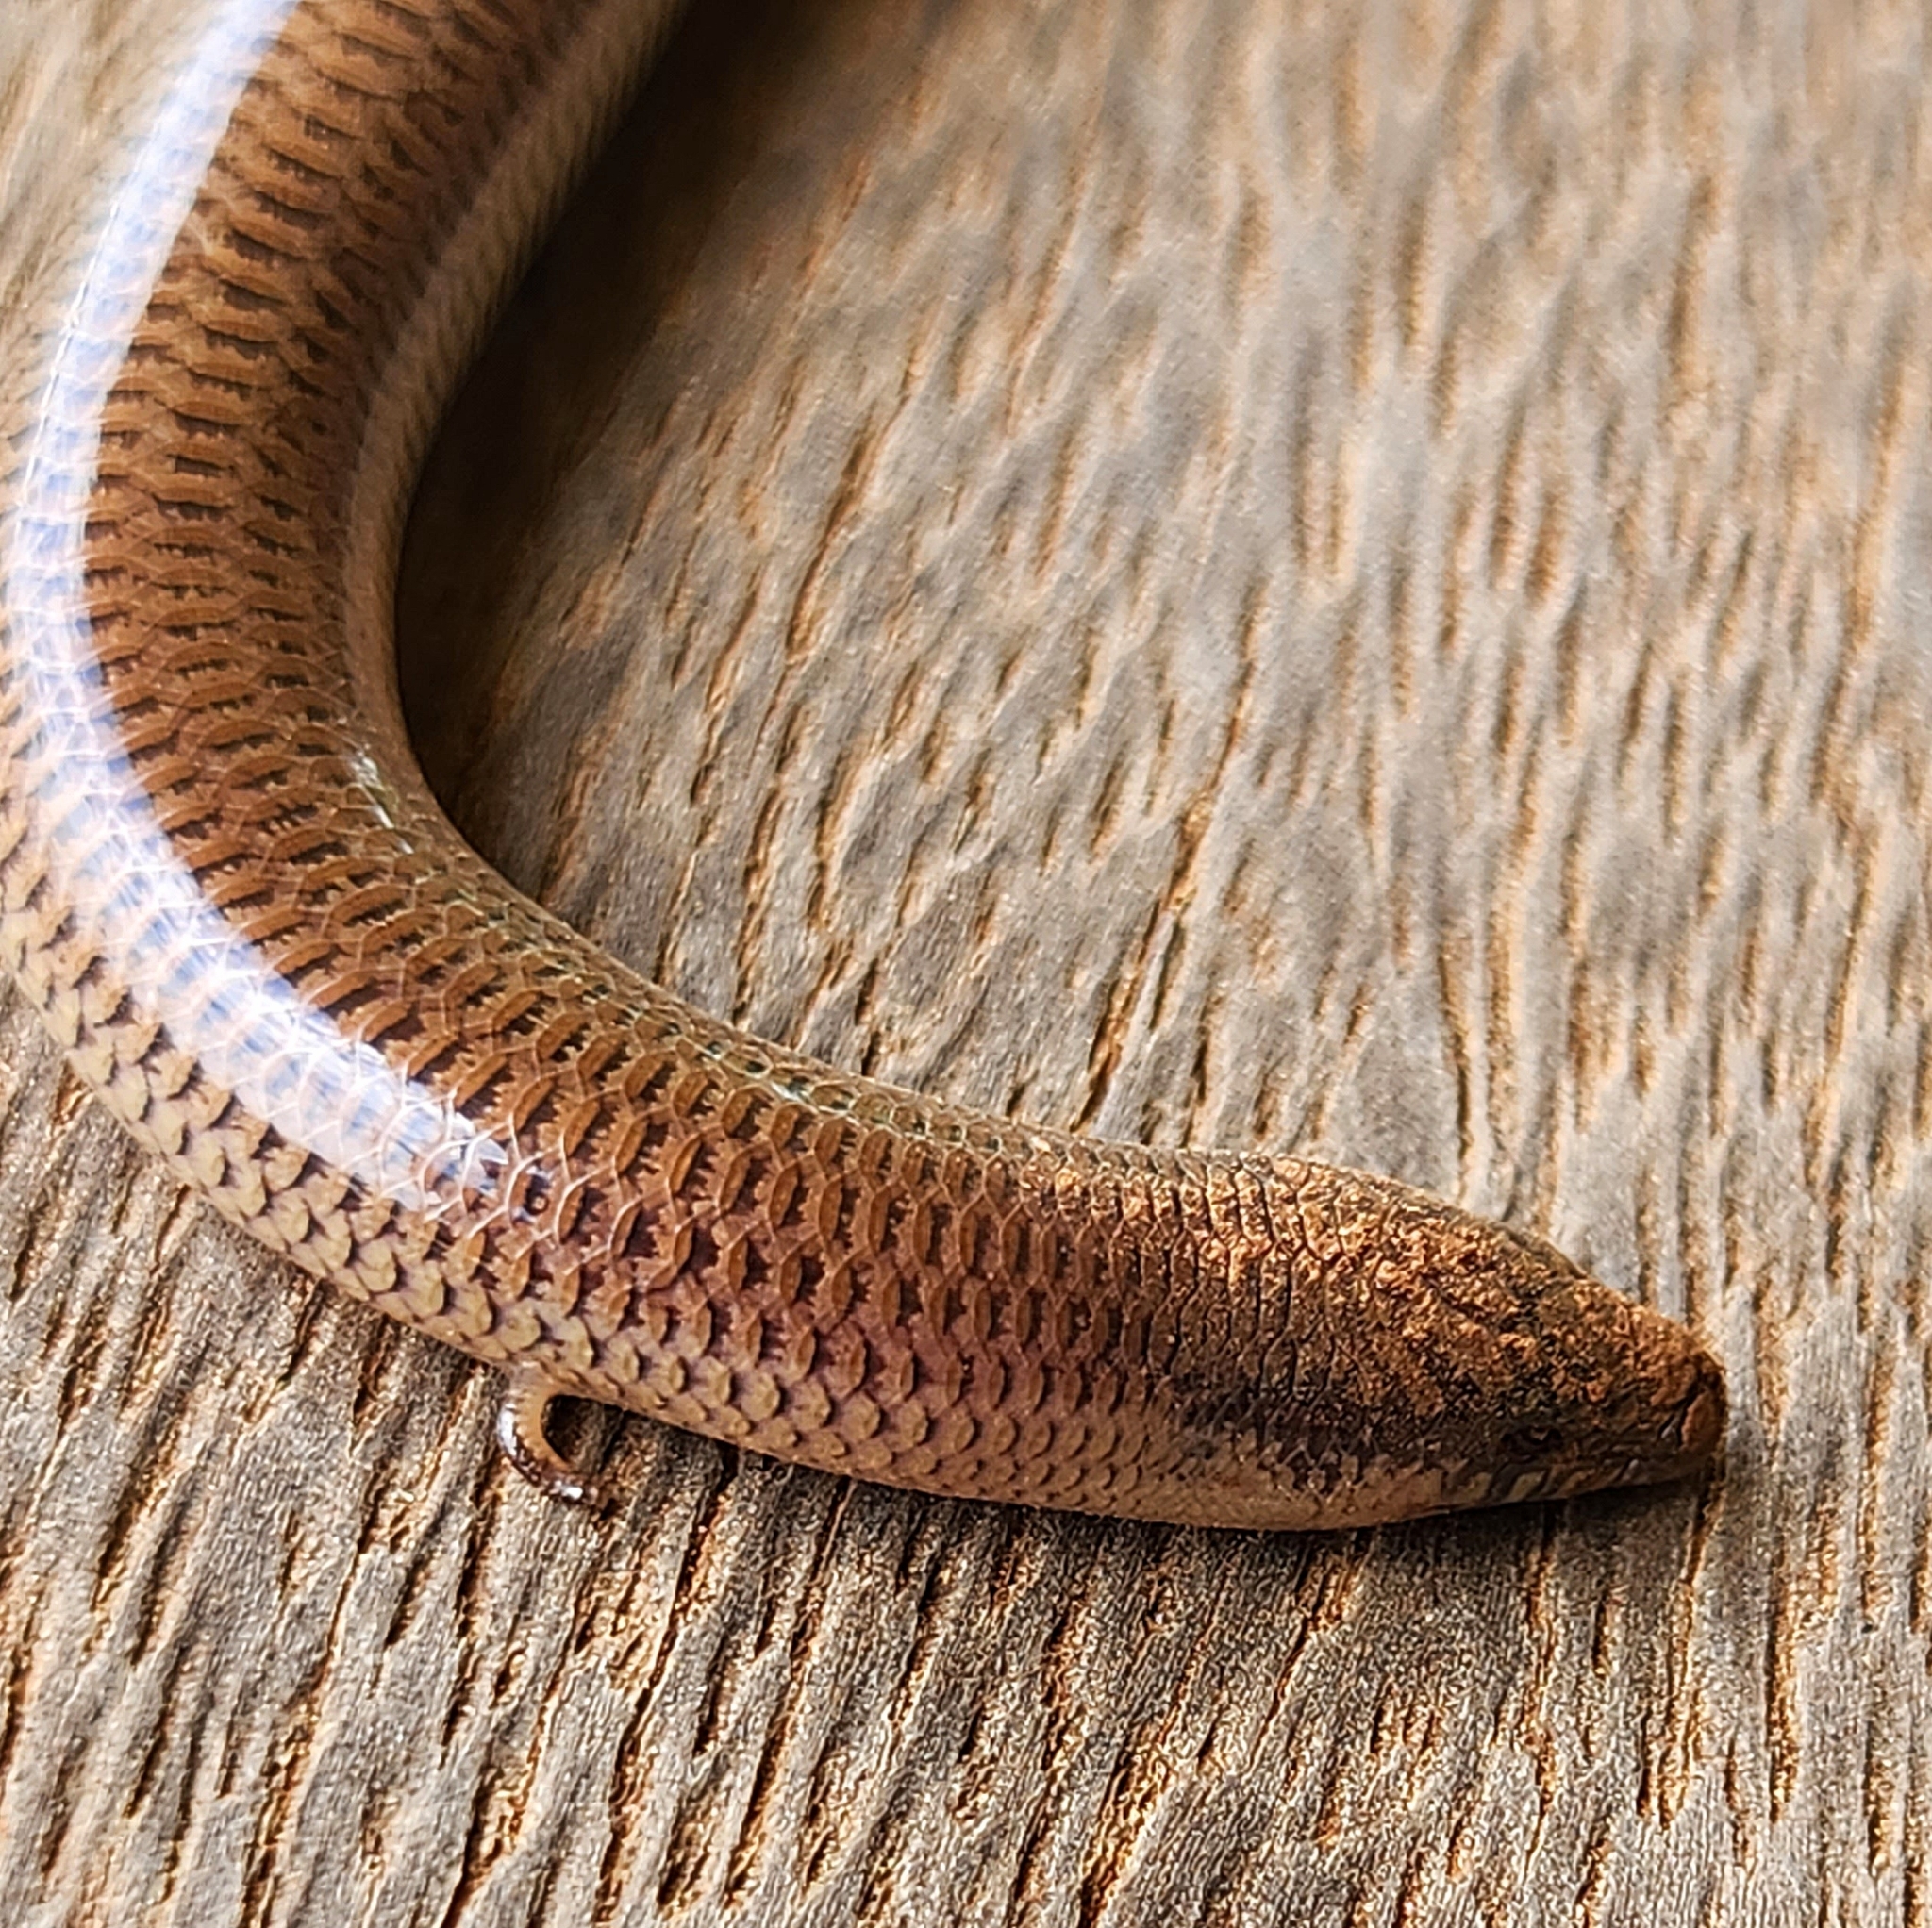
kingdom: Animalia
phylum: Chordata
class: Squamata
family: Scincidae
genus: Lerista
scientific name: Lerista punctatovittata
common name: Eastern robust slider
